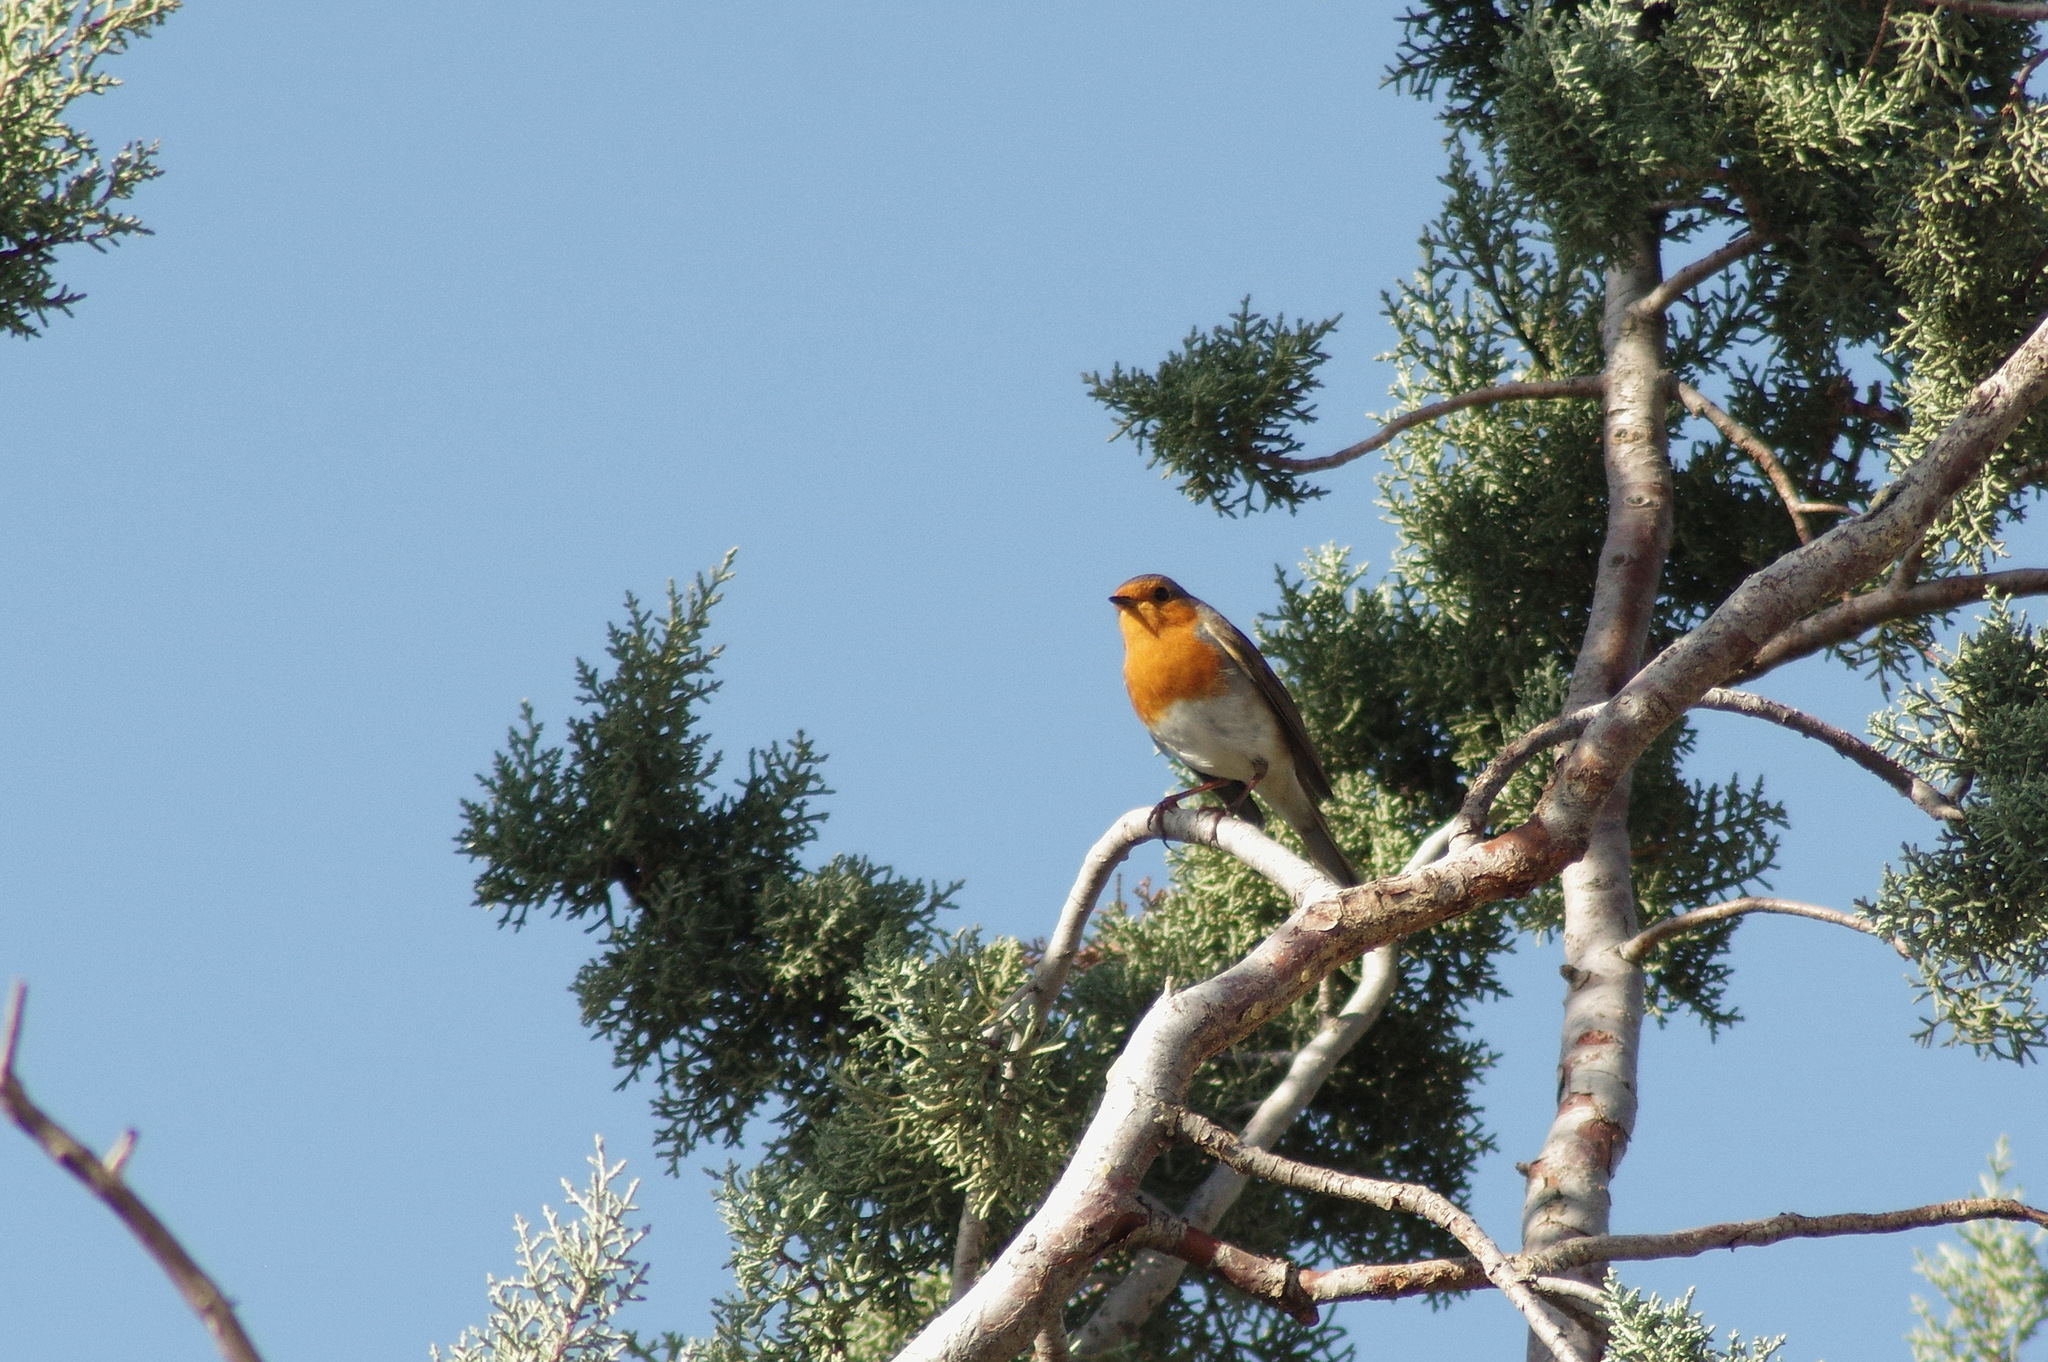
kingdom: Animalia
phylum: Chordata
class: Aves
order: Passeriformes
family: Muscicapidae
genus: Erithacus
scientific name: Erithacus rubecula
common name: European robin
